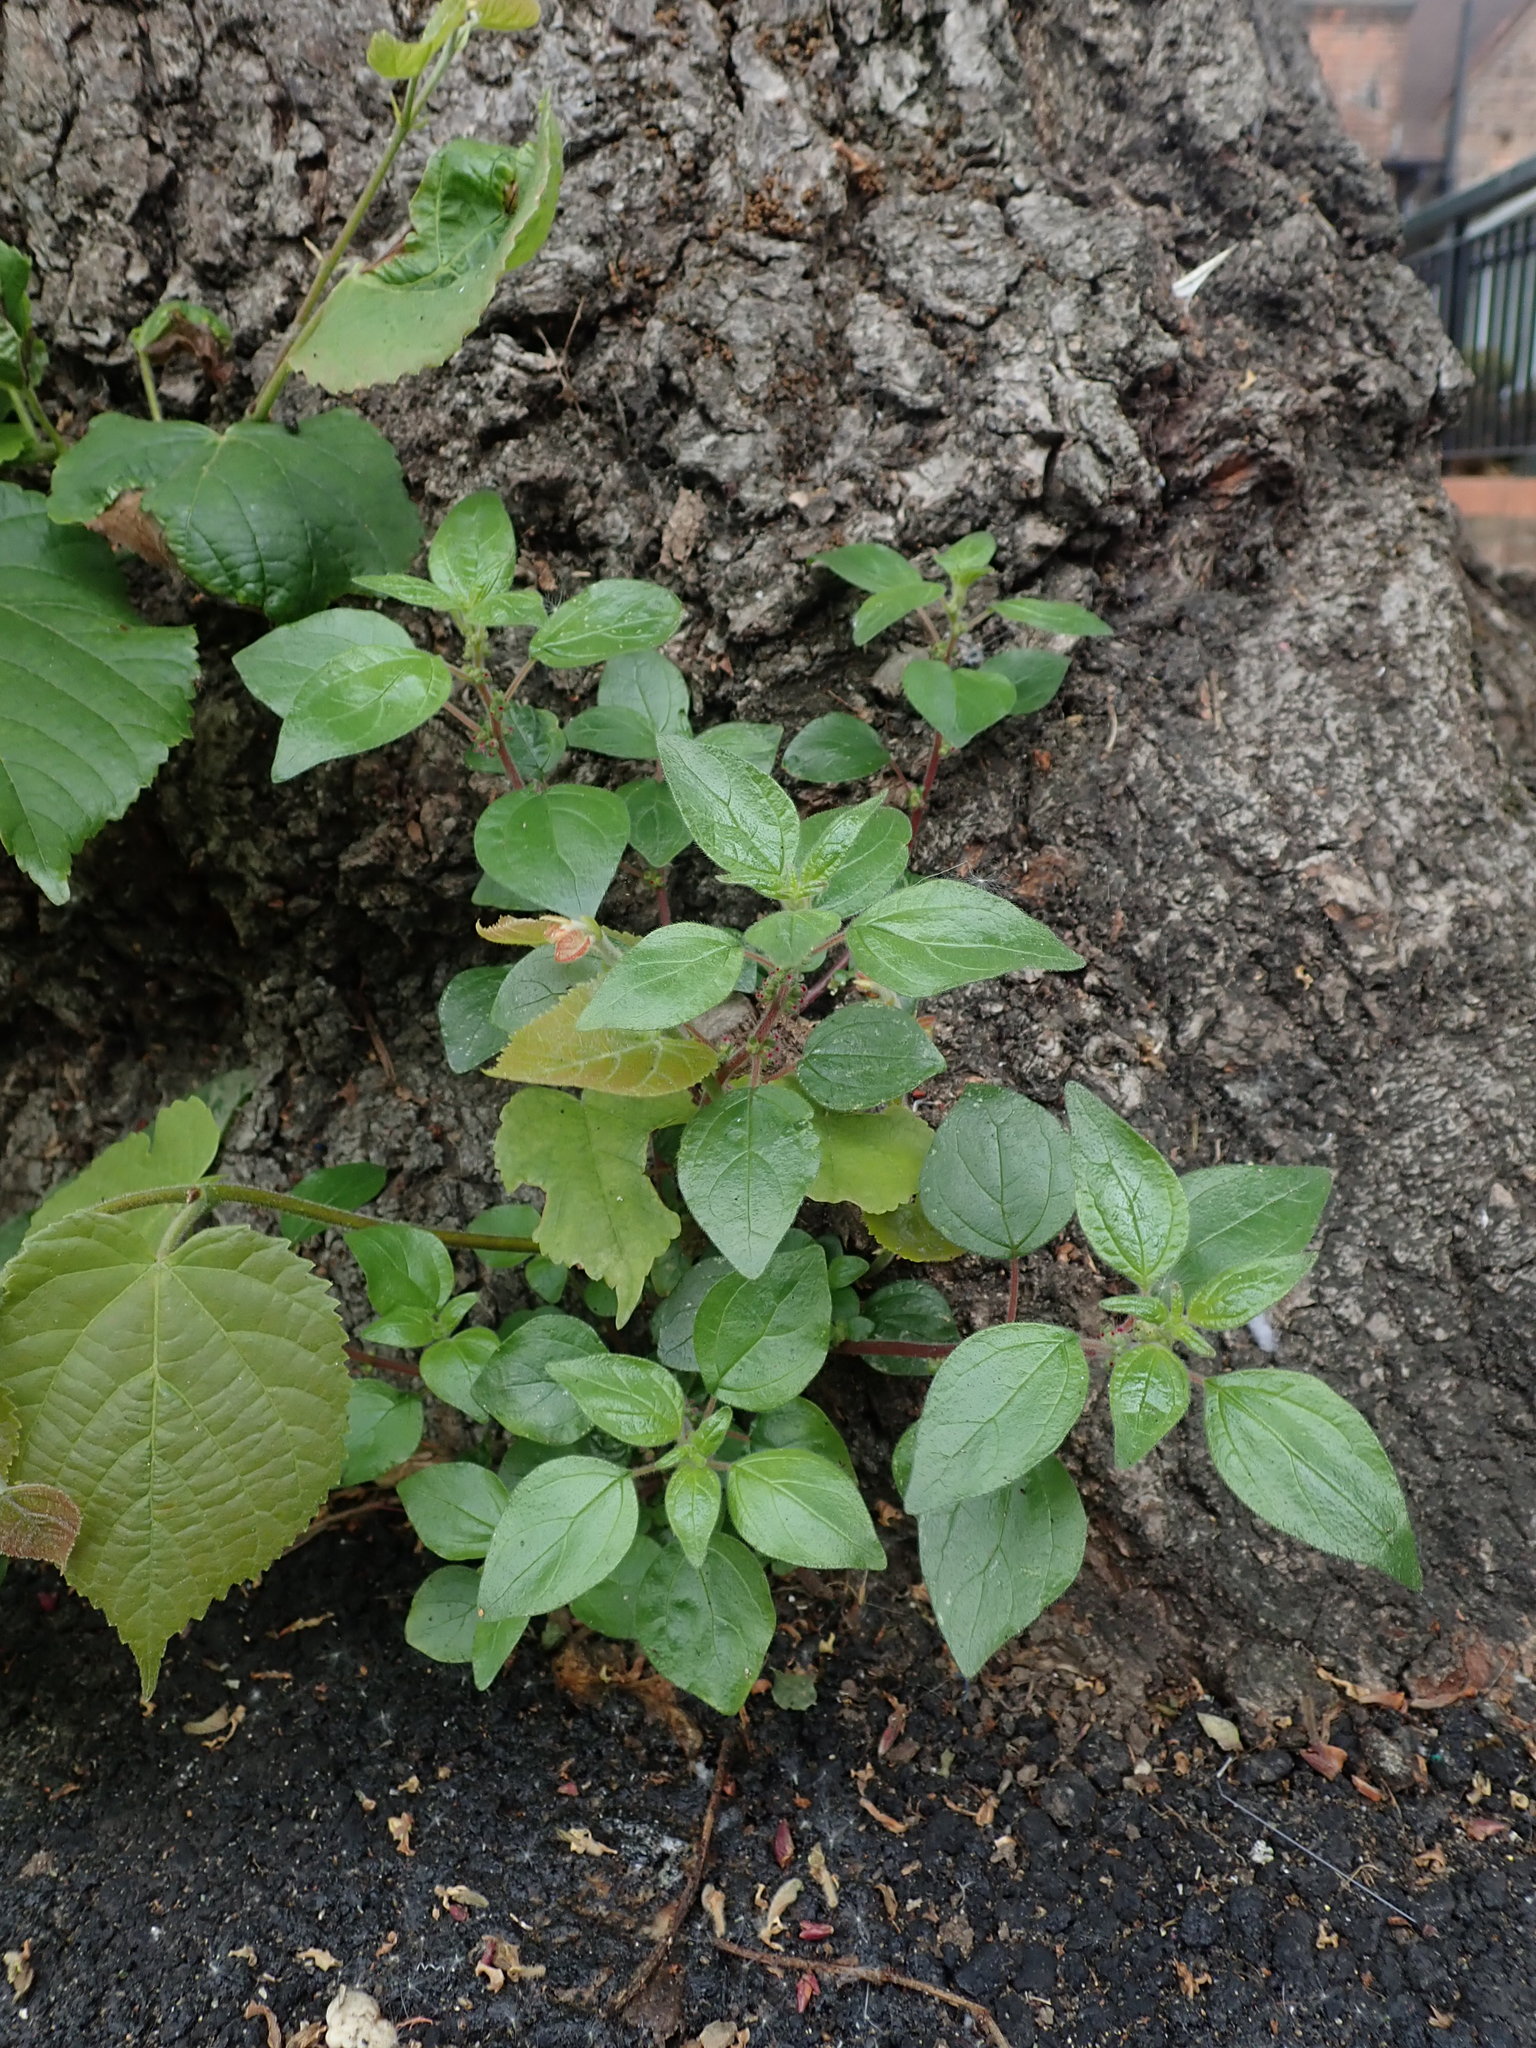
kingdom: Plantae
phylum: Tracheophyta
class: Magnoliopsida
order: Rosales
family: Urticaceae
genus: Parietaria
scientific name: Parietaria judaica
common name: Pellitory-of-the-wall
